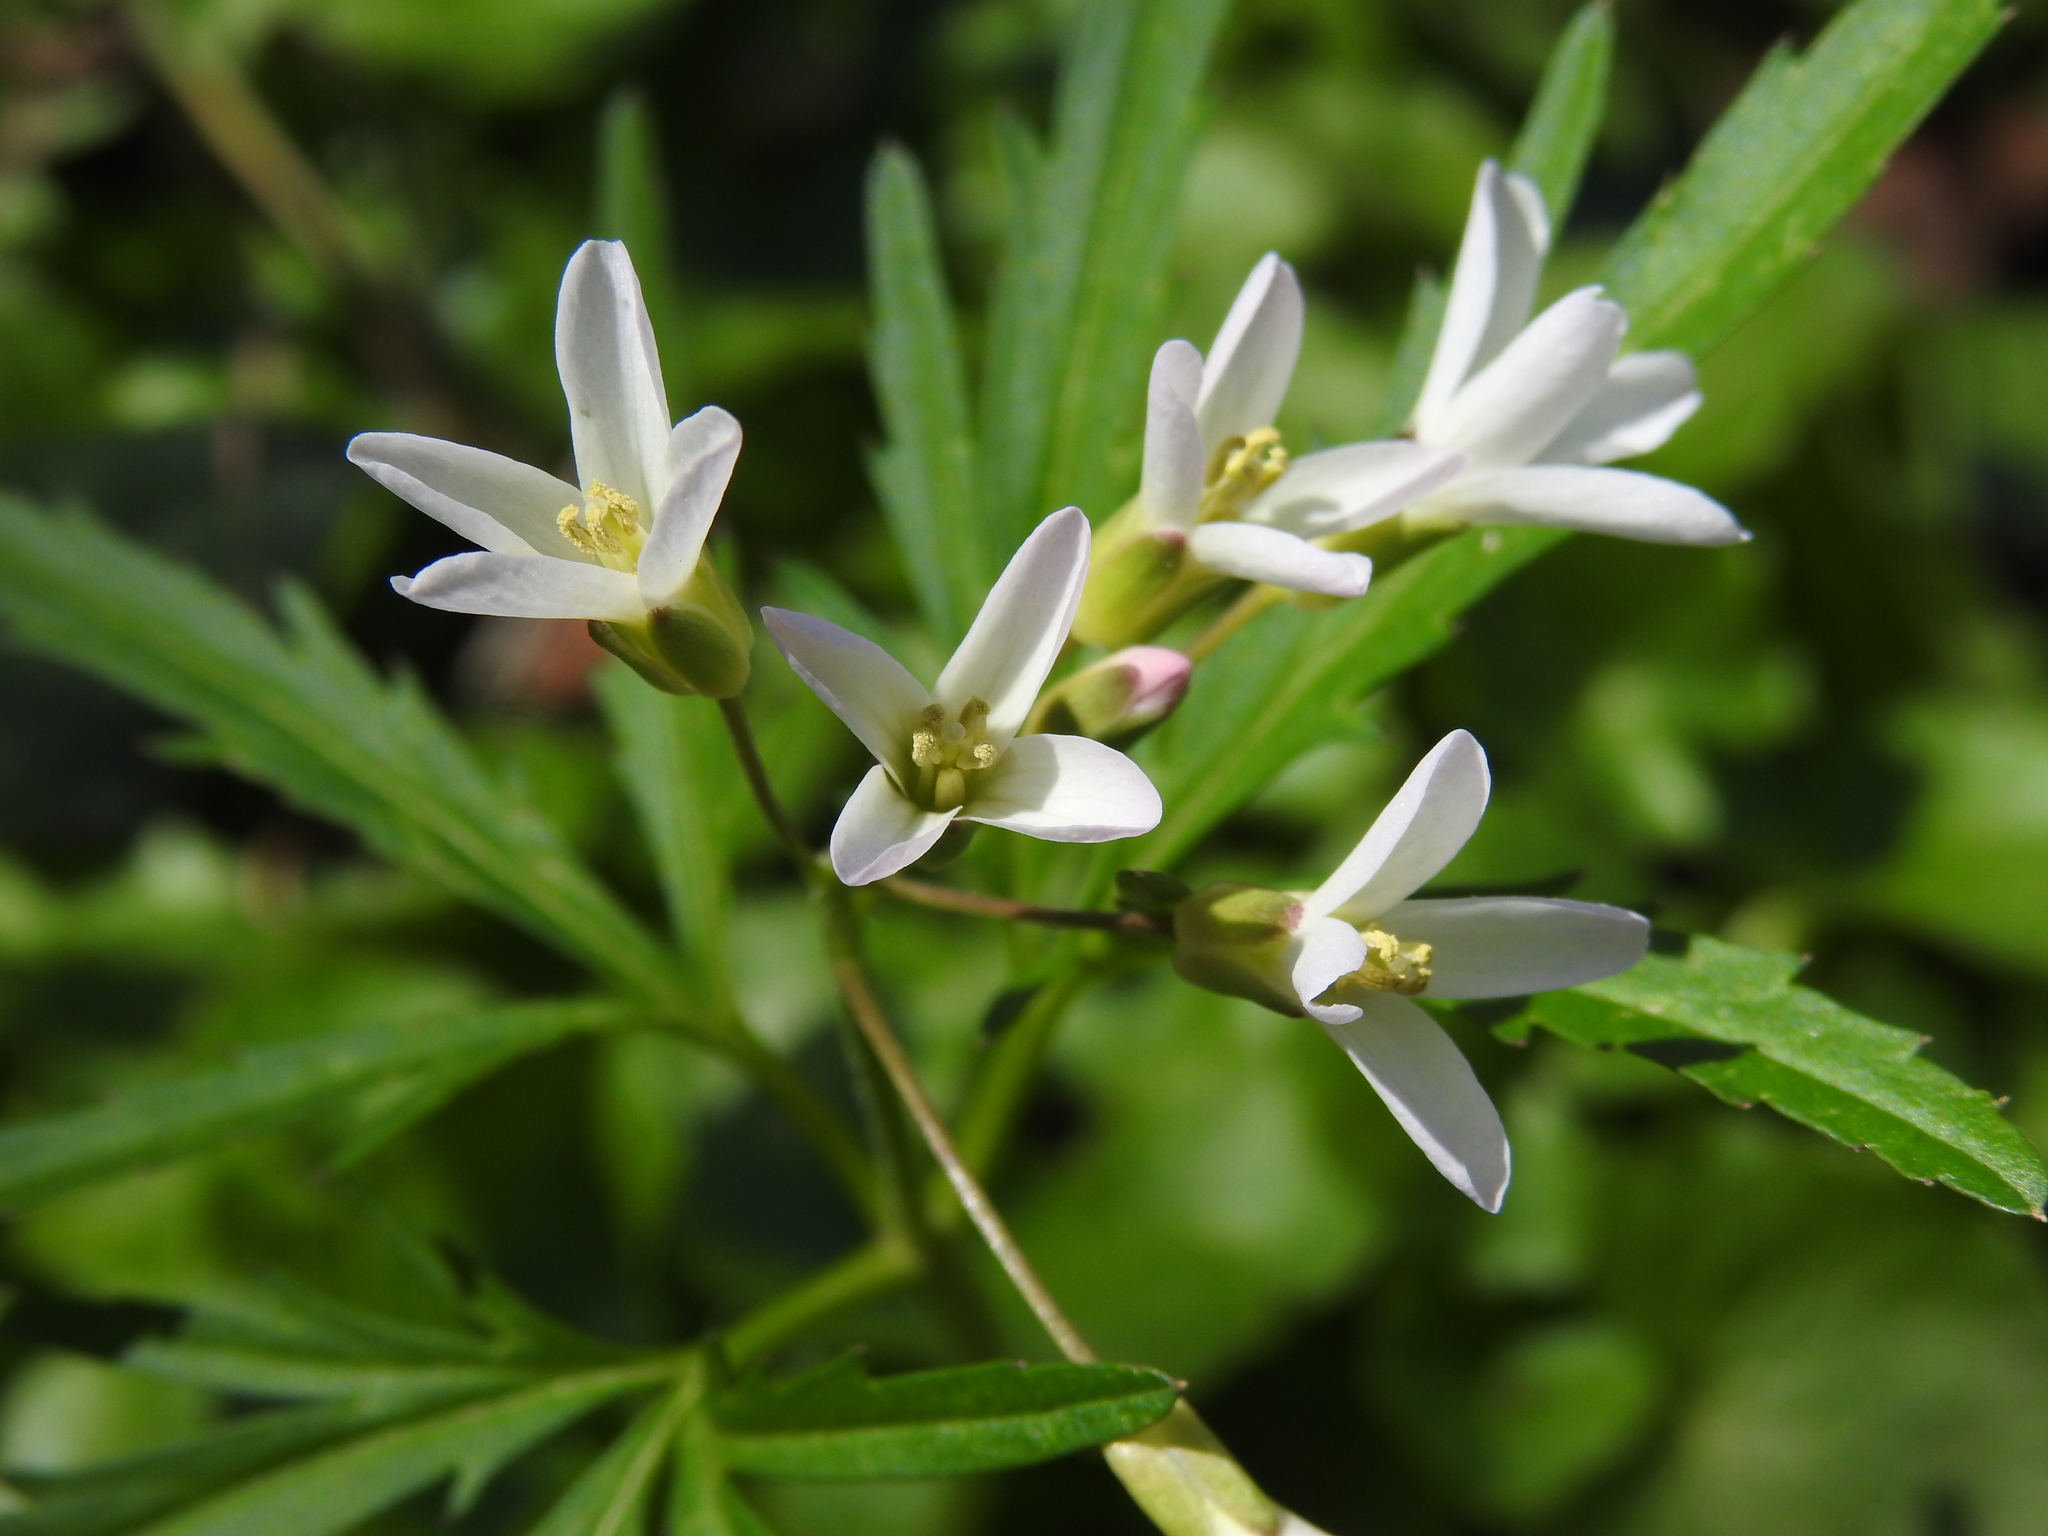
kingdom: Plantae
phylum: Tracheophyta
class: Magnoliopsida
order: Brassicales
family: Brassicaceae
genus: Cardamine
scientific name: Cardamine concatenata
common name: Cut-leaf toothcup
